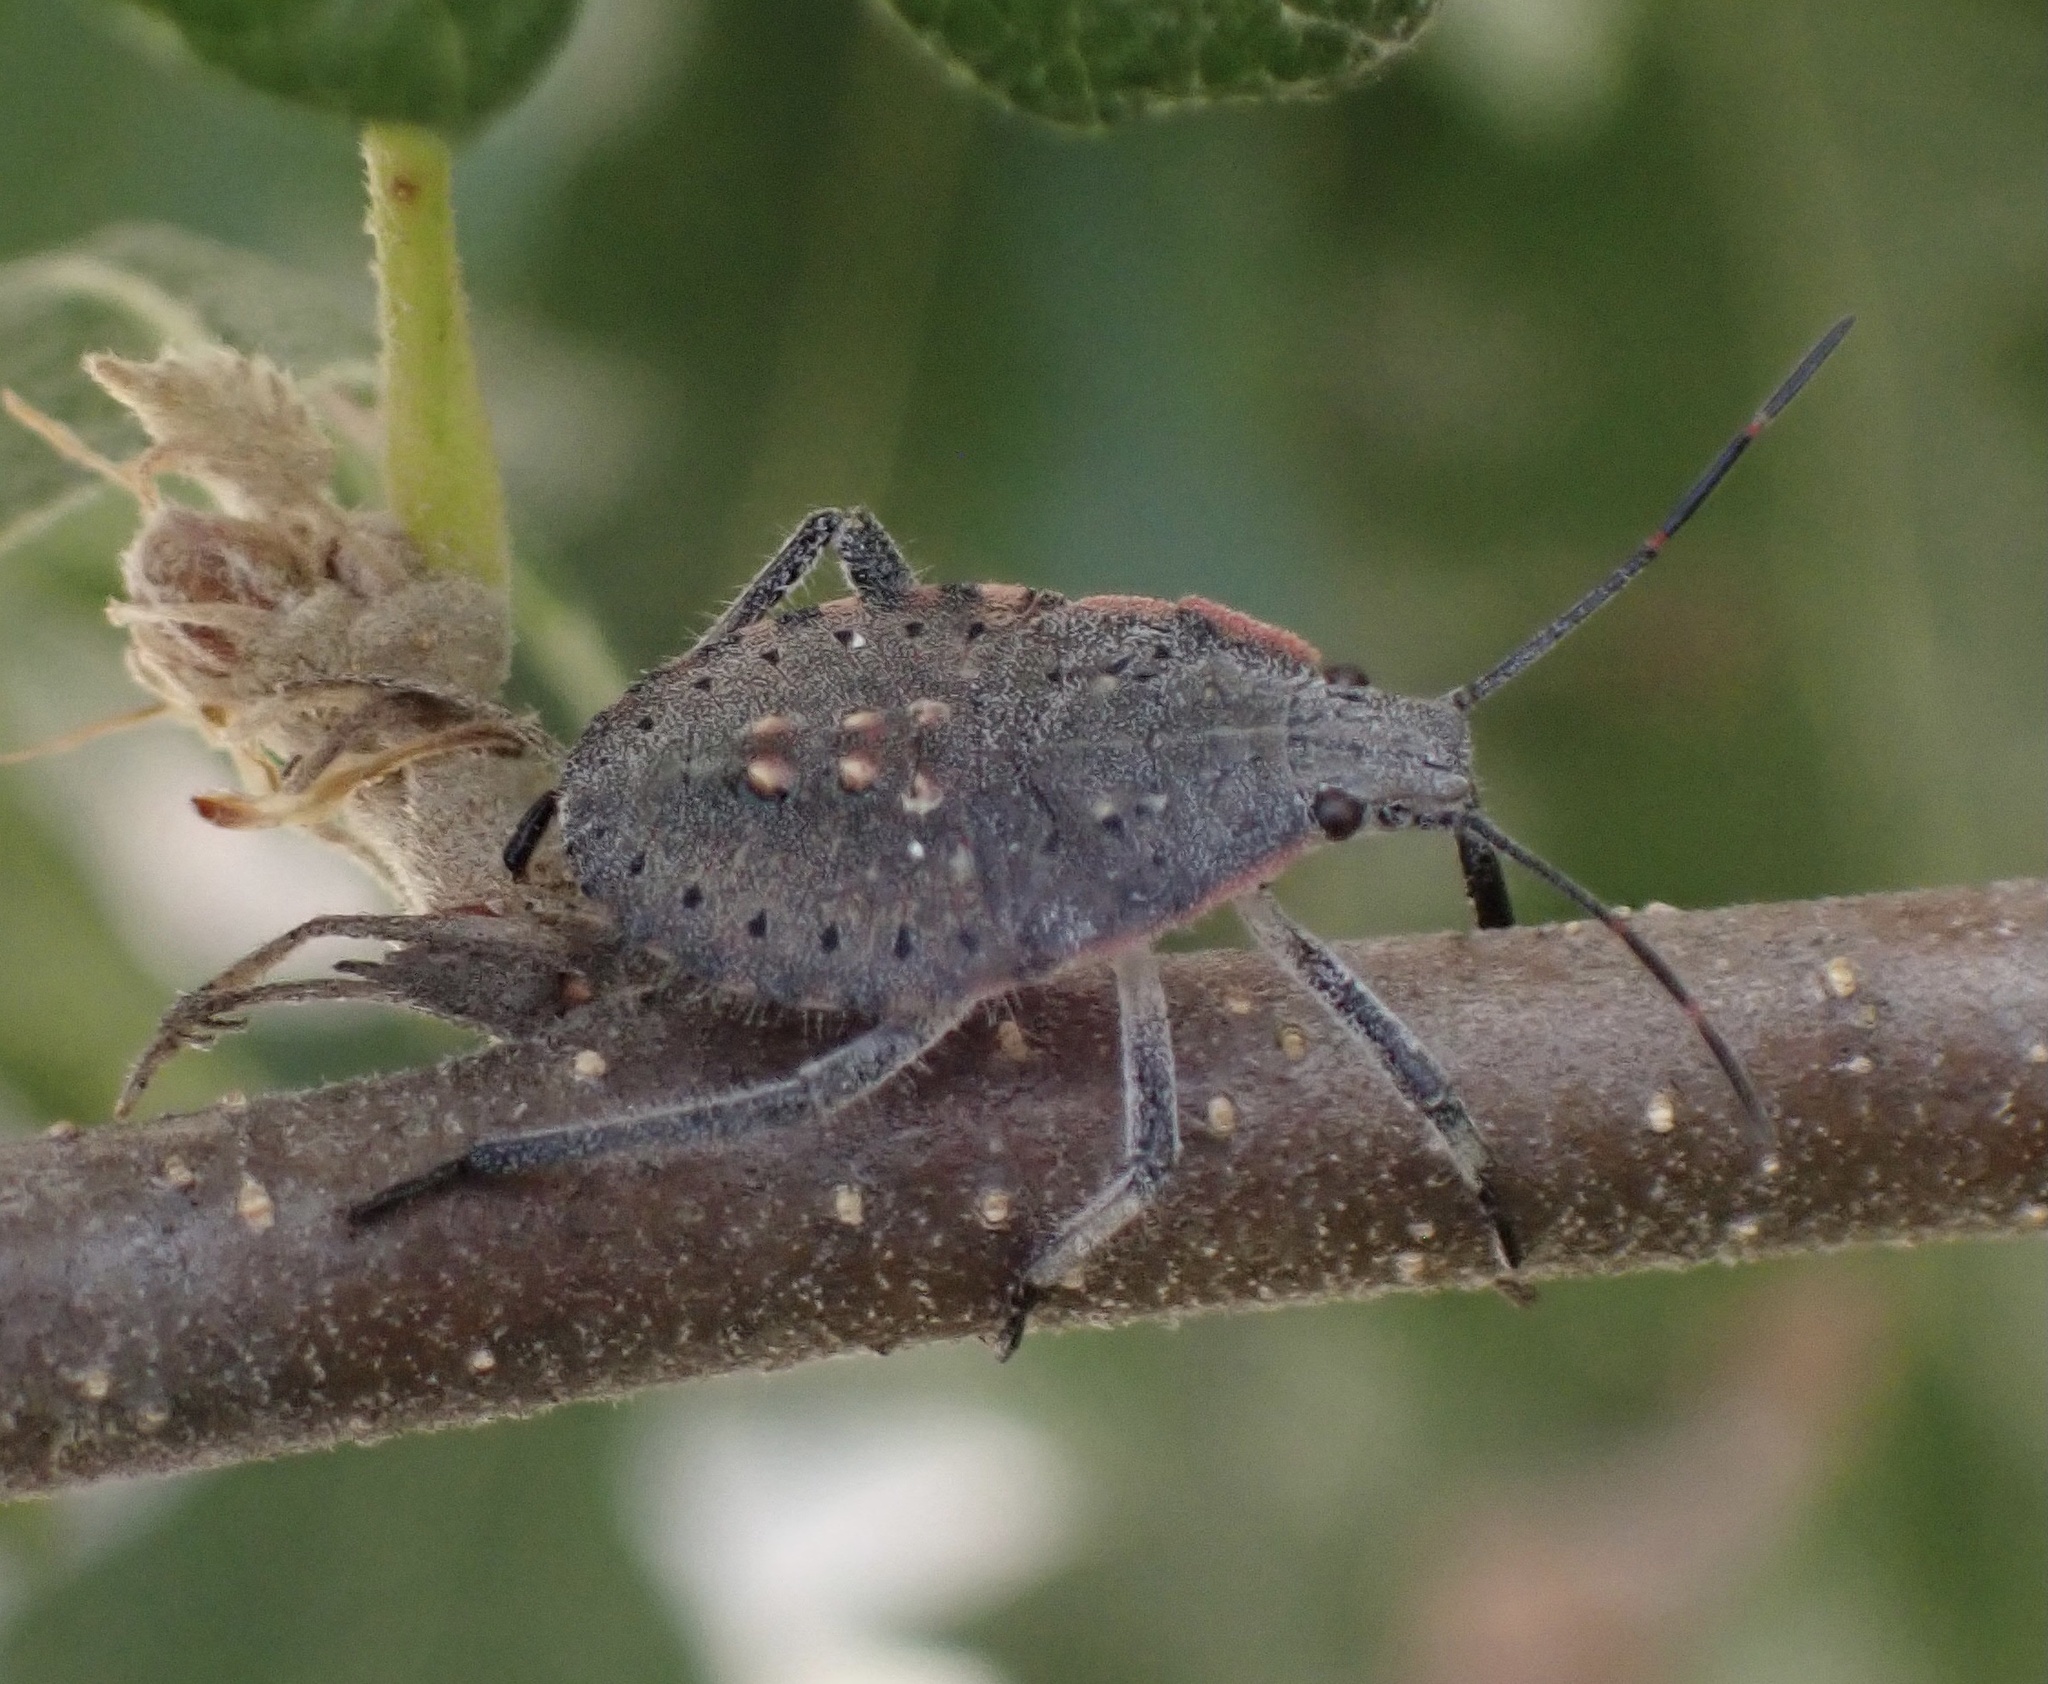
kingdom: Animalia
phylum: Arthropoda
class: Insecta
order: Hemiptera
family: Pentatomidae
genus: Apodiphus
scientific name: Apodiphus amygdali
